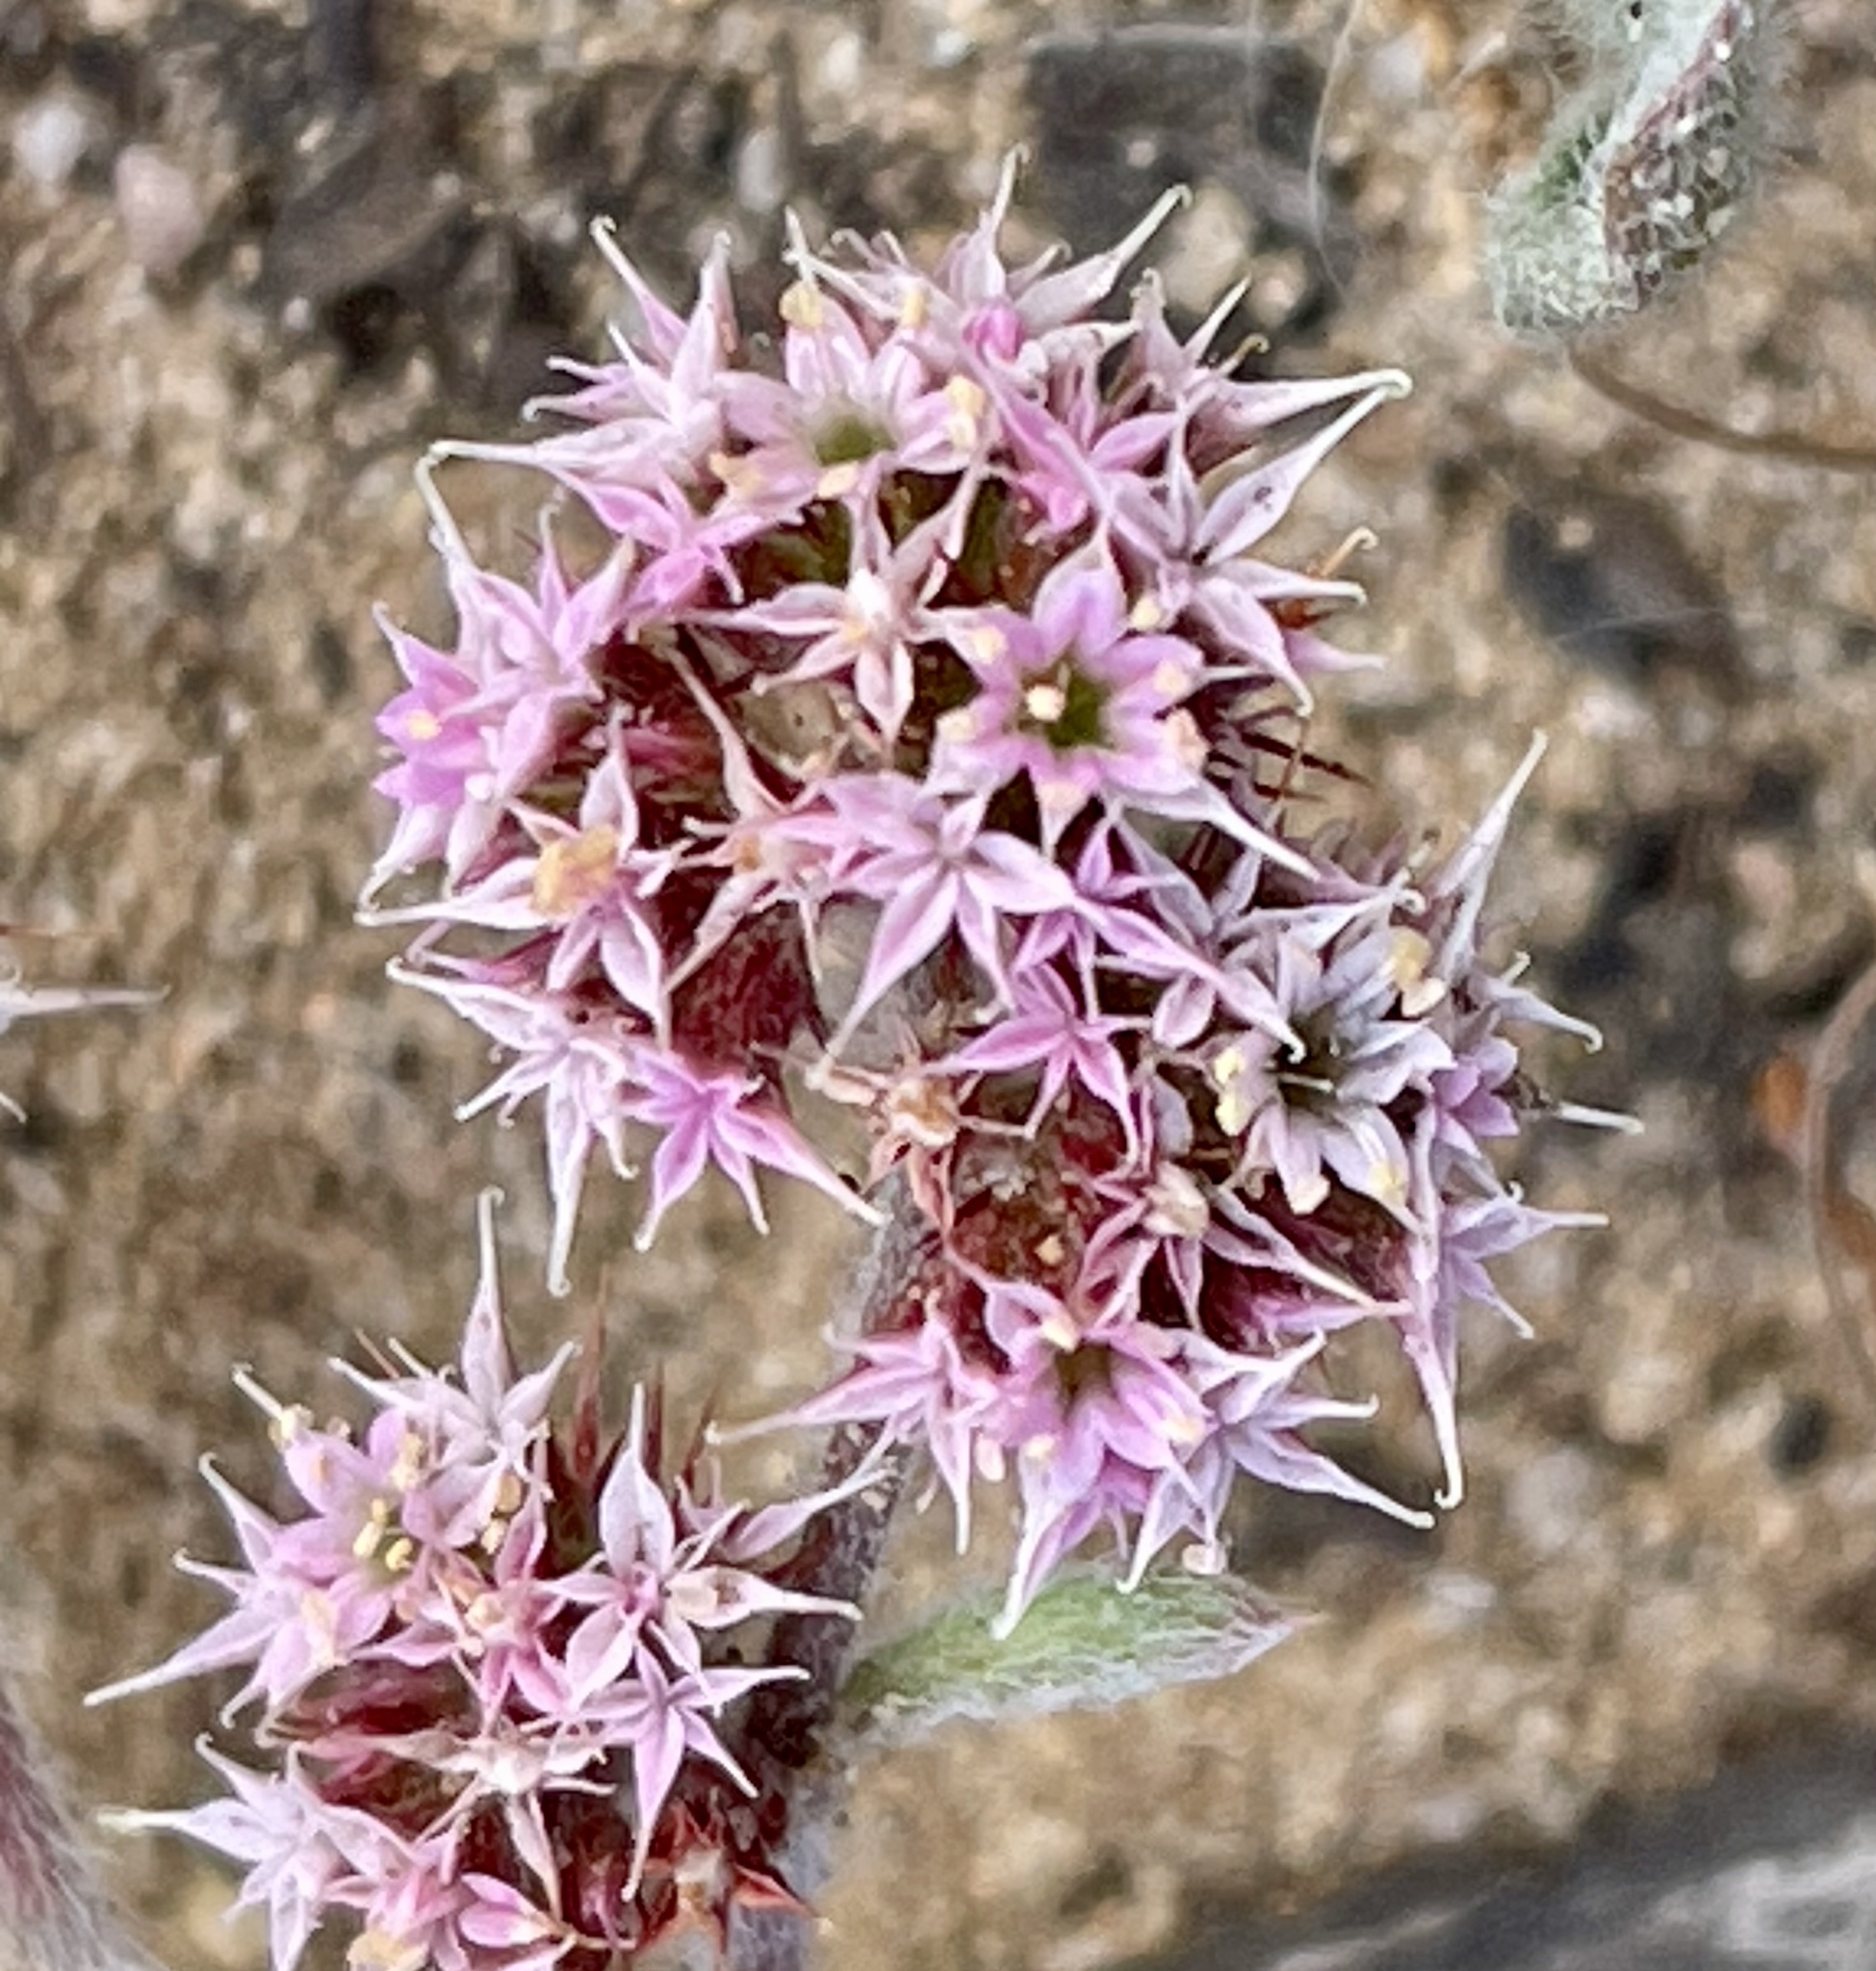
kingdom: Plantae
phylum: Tracheophyta
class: Magnoliopsida
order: Caryophyllales
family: Polygonaceae
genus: Chorizanthe
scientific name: Chorizanthe pungens
